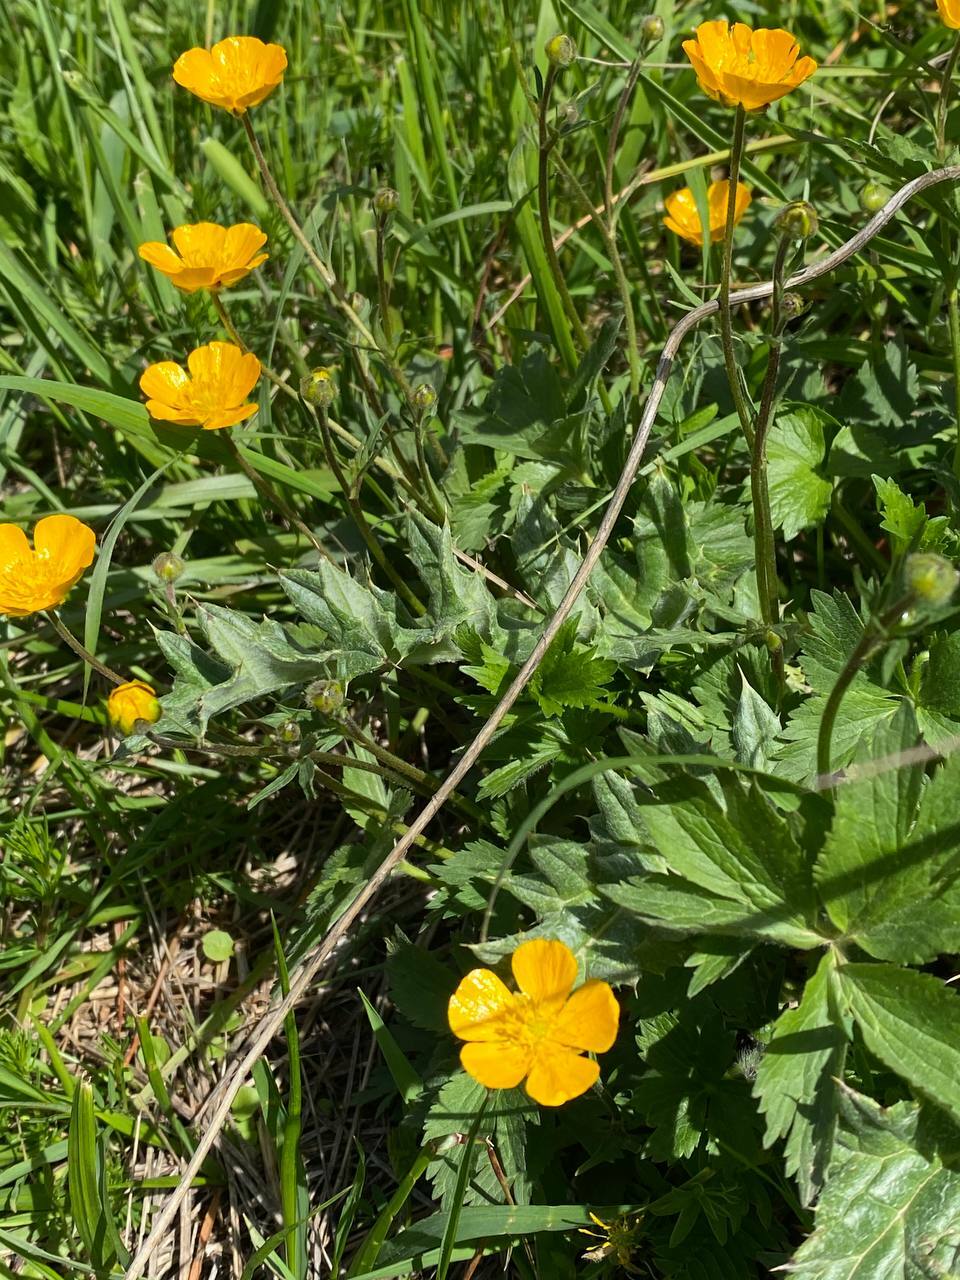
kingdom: Plantae
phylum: Tracheophyta
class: Magnoliopsida
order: Ranunculales
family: Ranunculaceae
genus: Ranunculus
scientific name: Ranunculus repens
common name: Creeping buttercup
